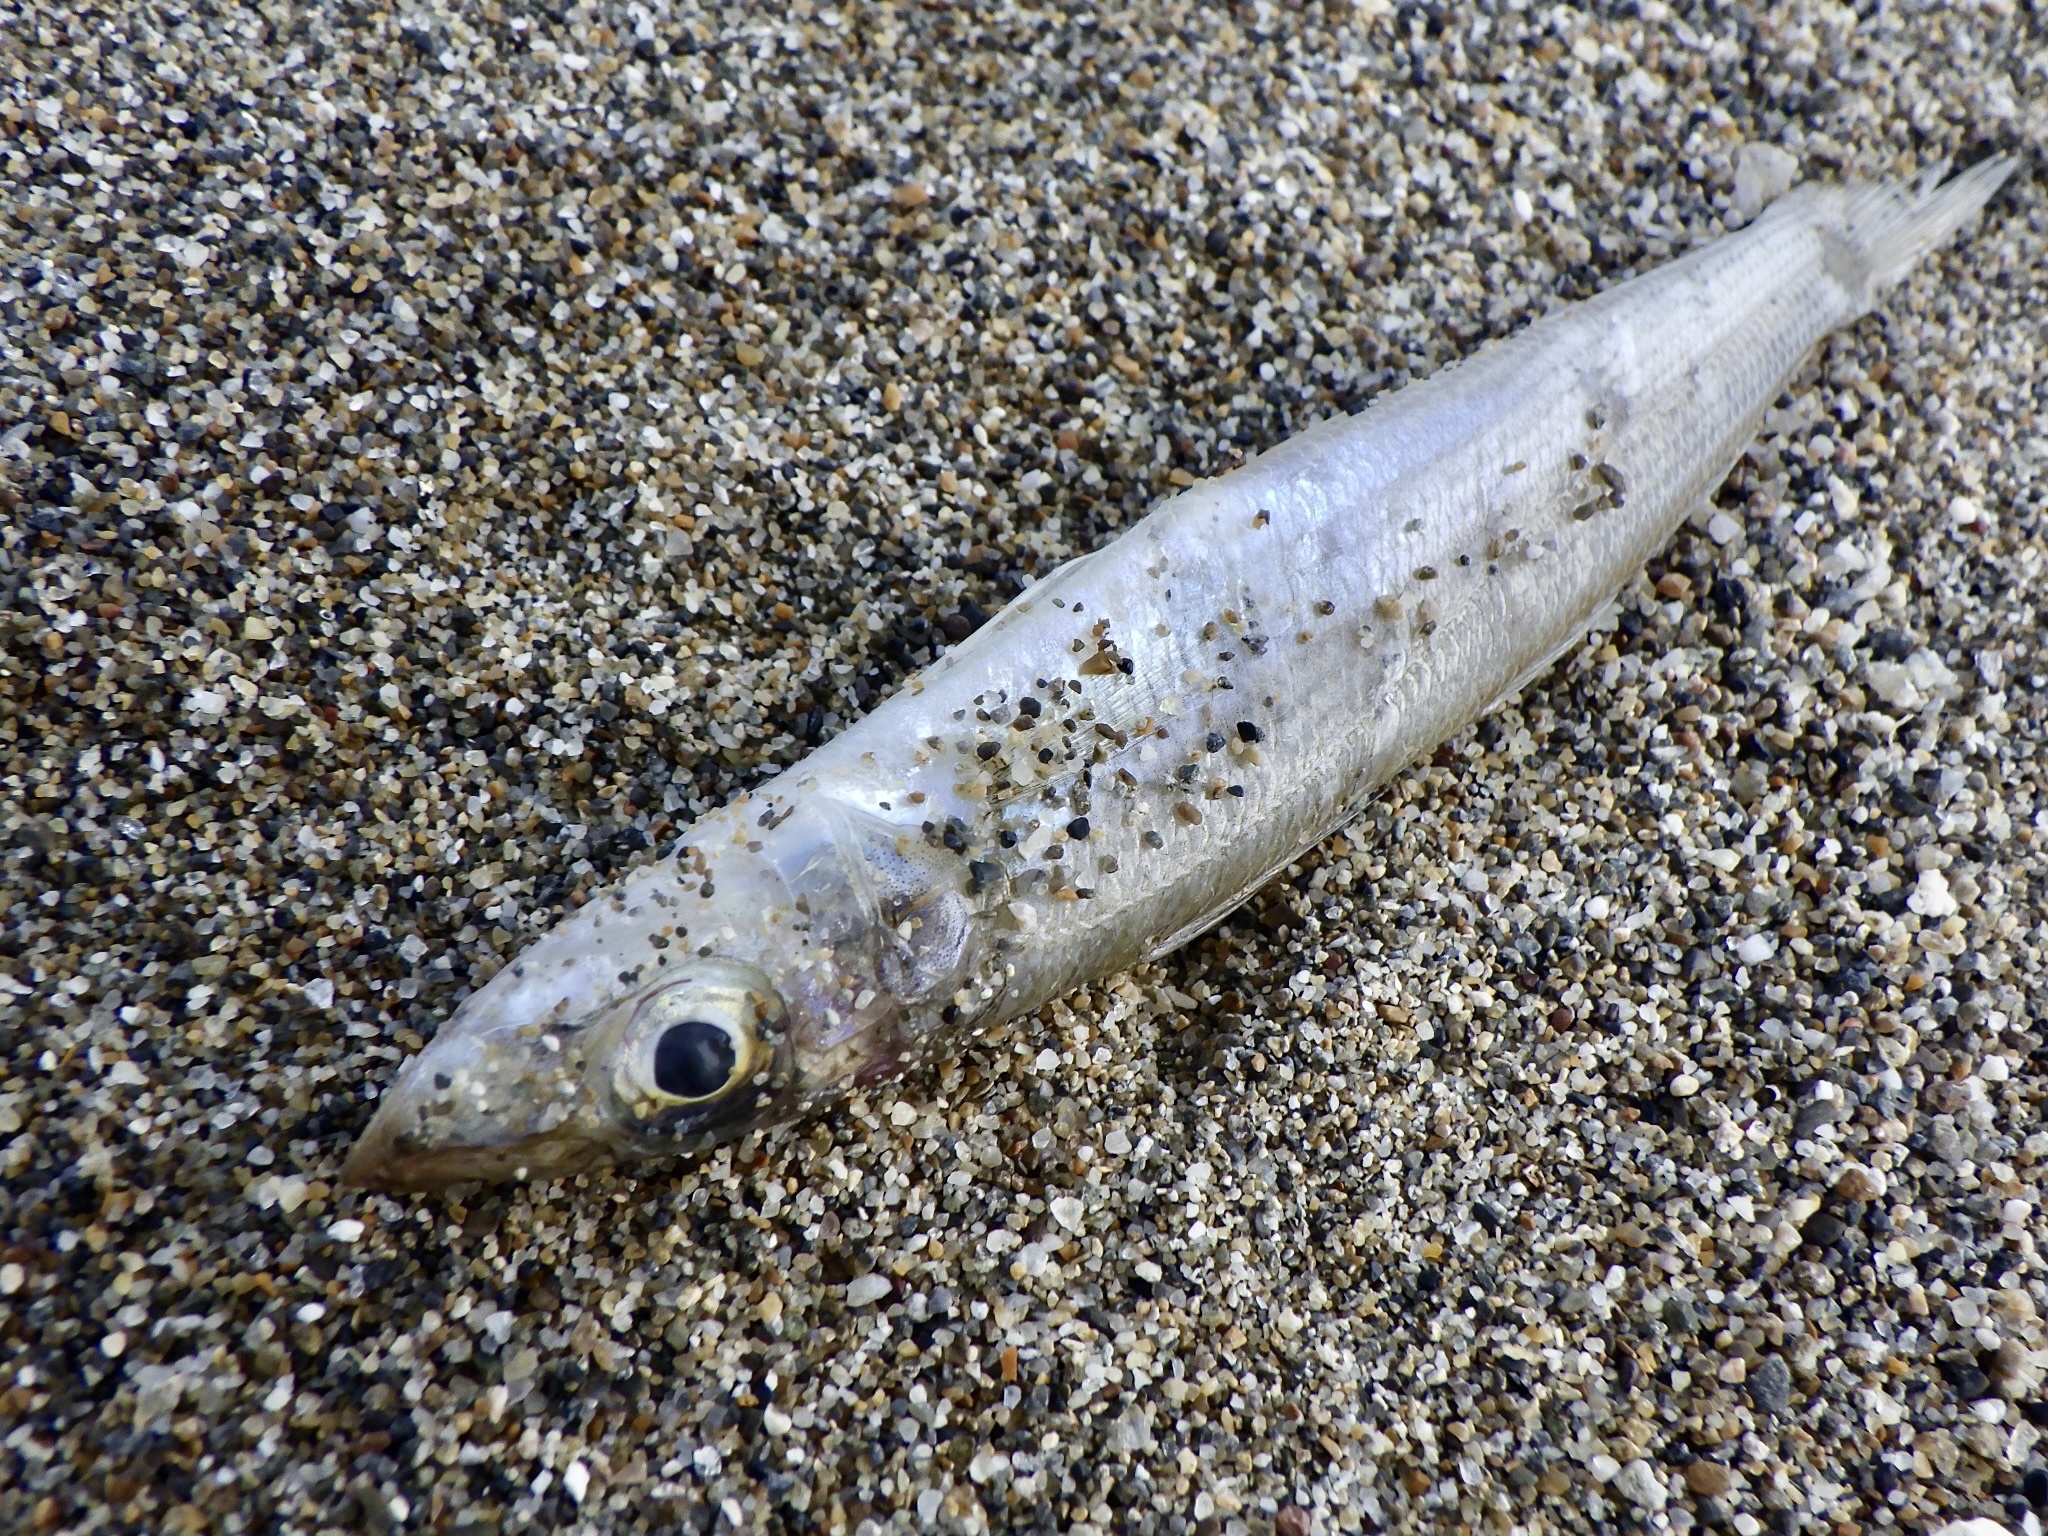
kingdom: Animalia
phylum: Chordata
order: Perciformes
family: Sillaginidae
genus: Sillago
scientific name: Sillago japonica
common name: Japanese sillago
